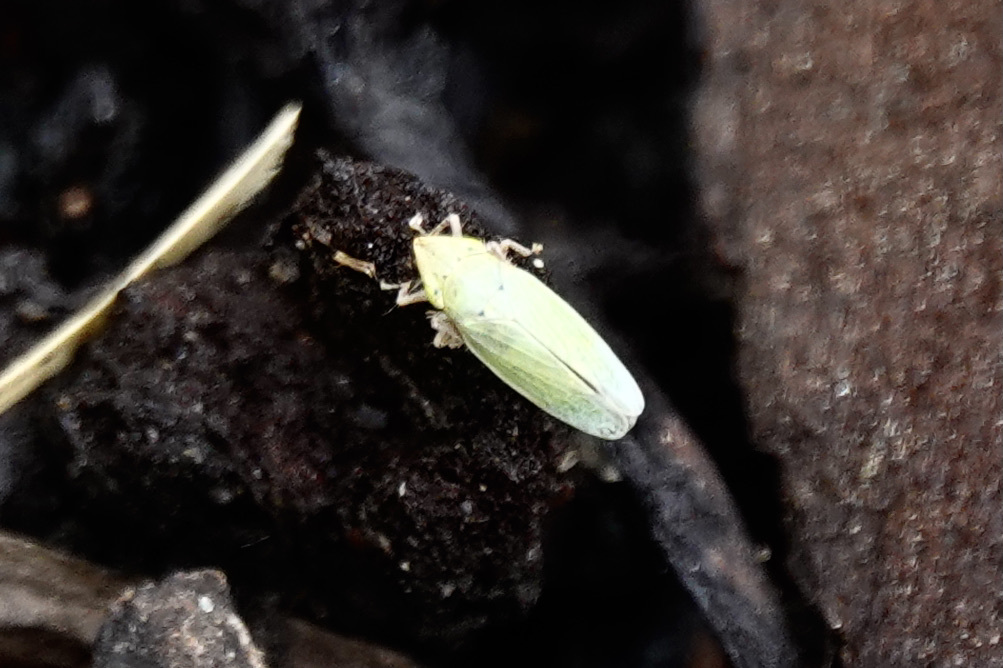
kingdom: Animalia
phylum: Arthropoda
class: Insecta
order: Hemiptera
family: Cicadellidae
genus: Draeculacephala
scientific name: Draeculacephala balli
